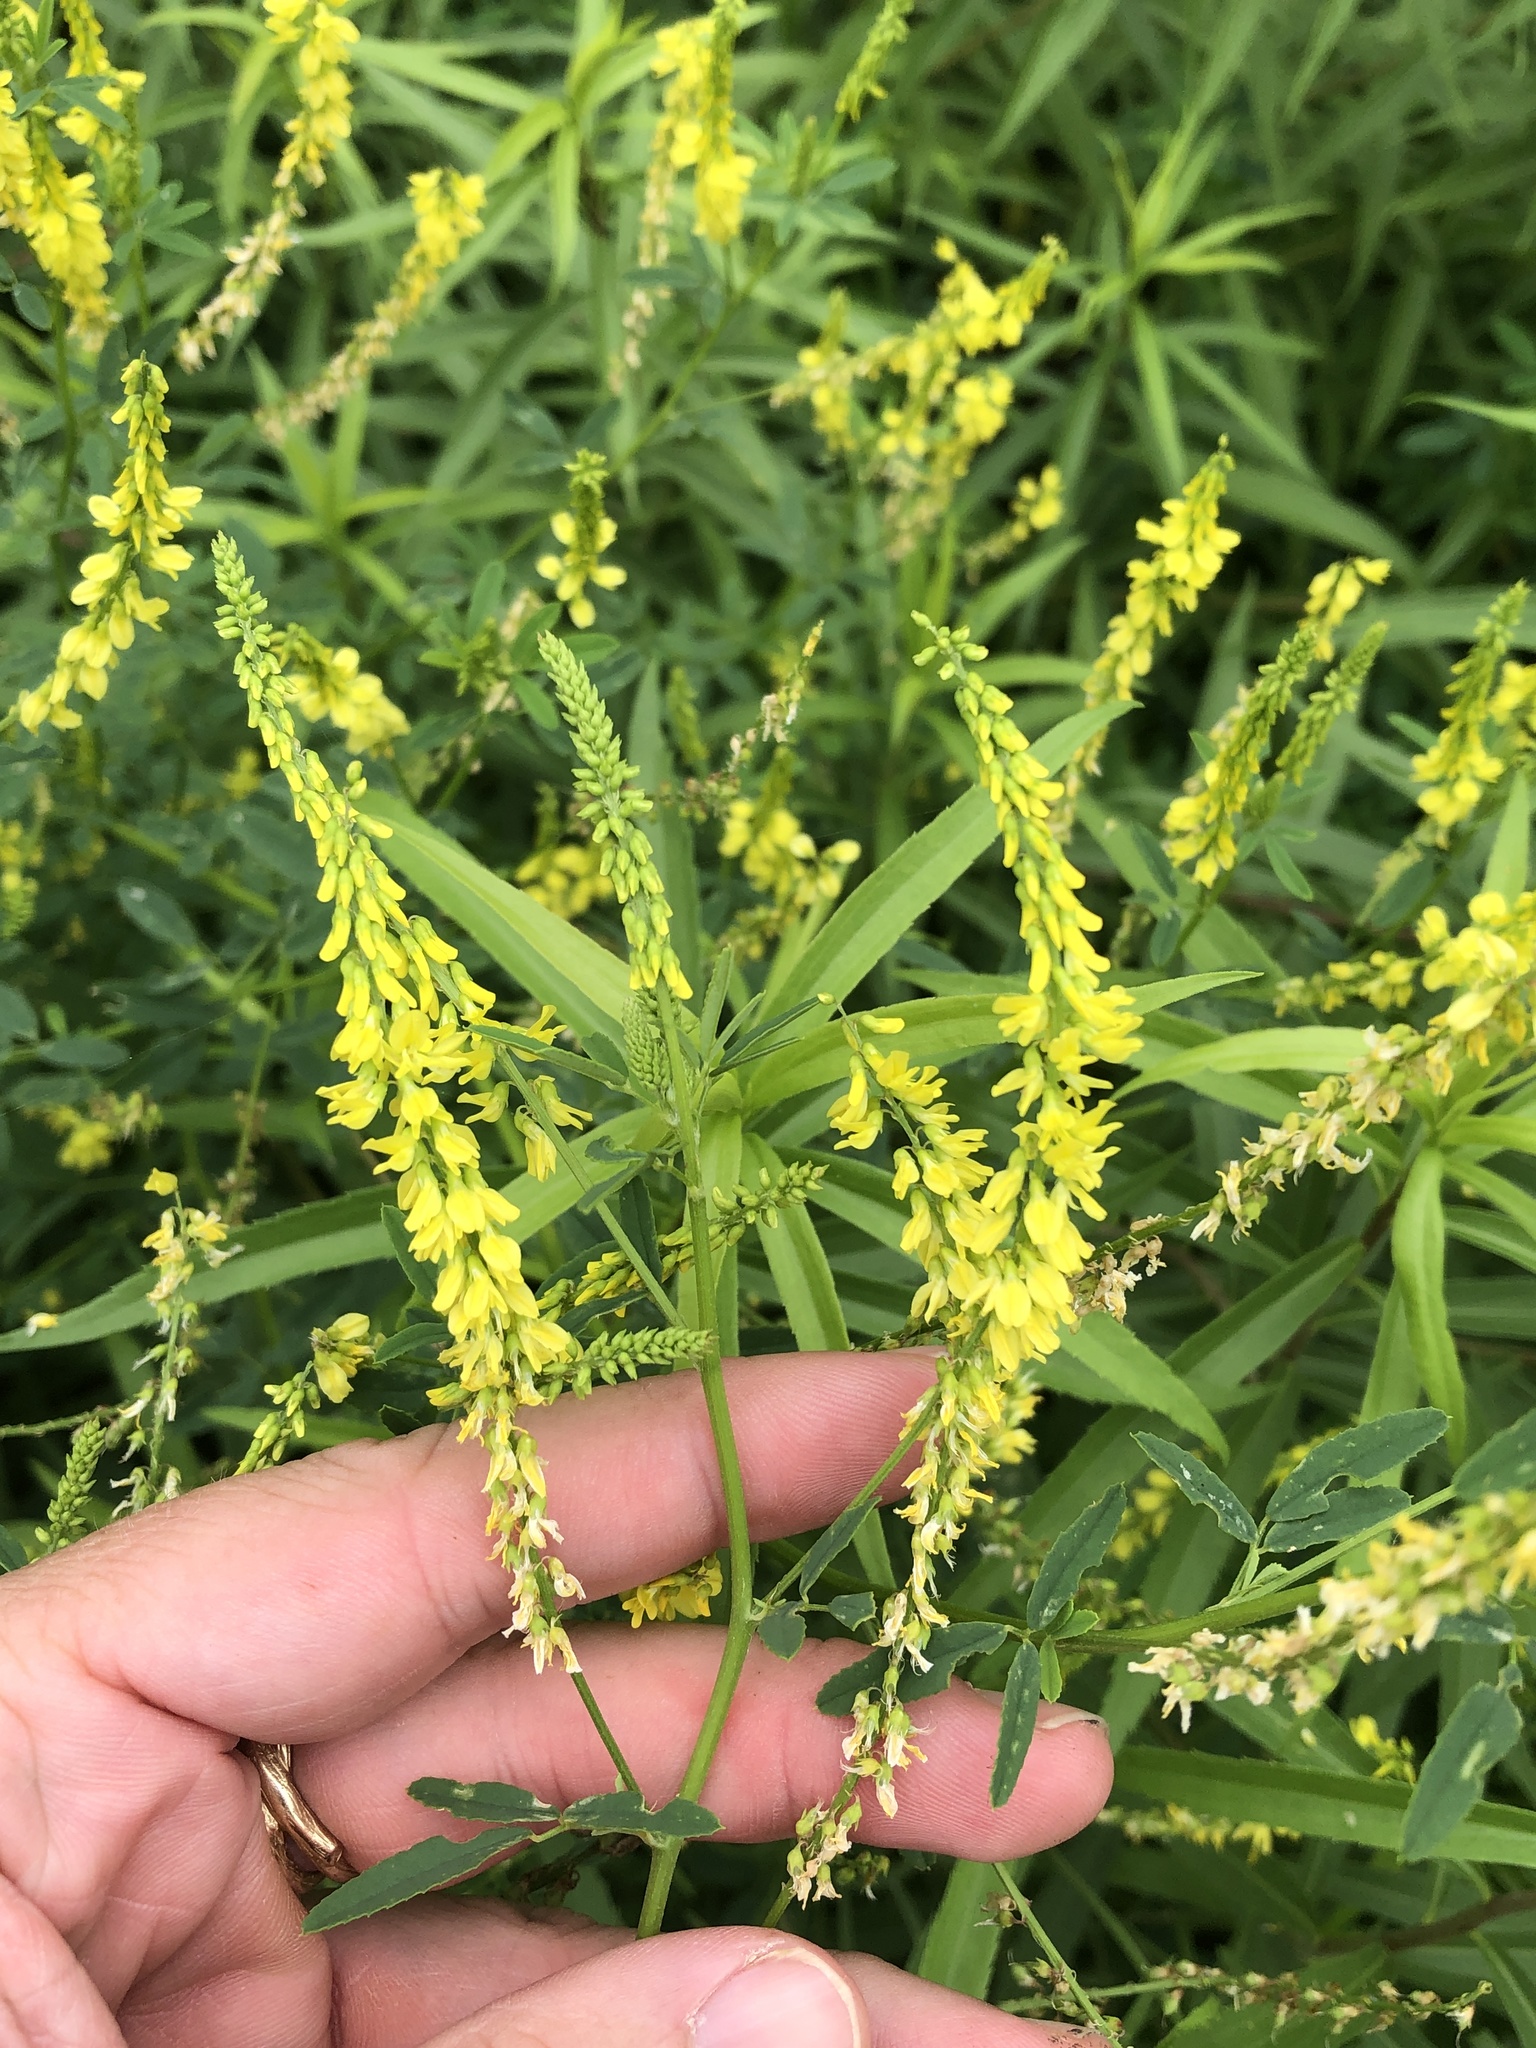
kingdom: Plantae
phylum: Tracheophyta
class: Magnoliopsida
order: Fabales
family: Fabaceae
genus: Melilotus
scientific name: Melilotus officinalis
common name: Sweetclover
